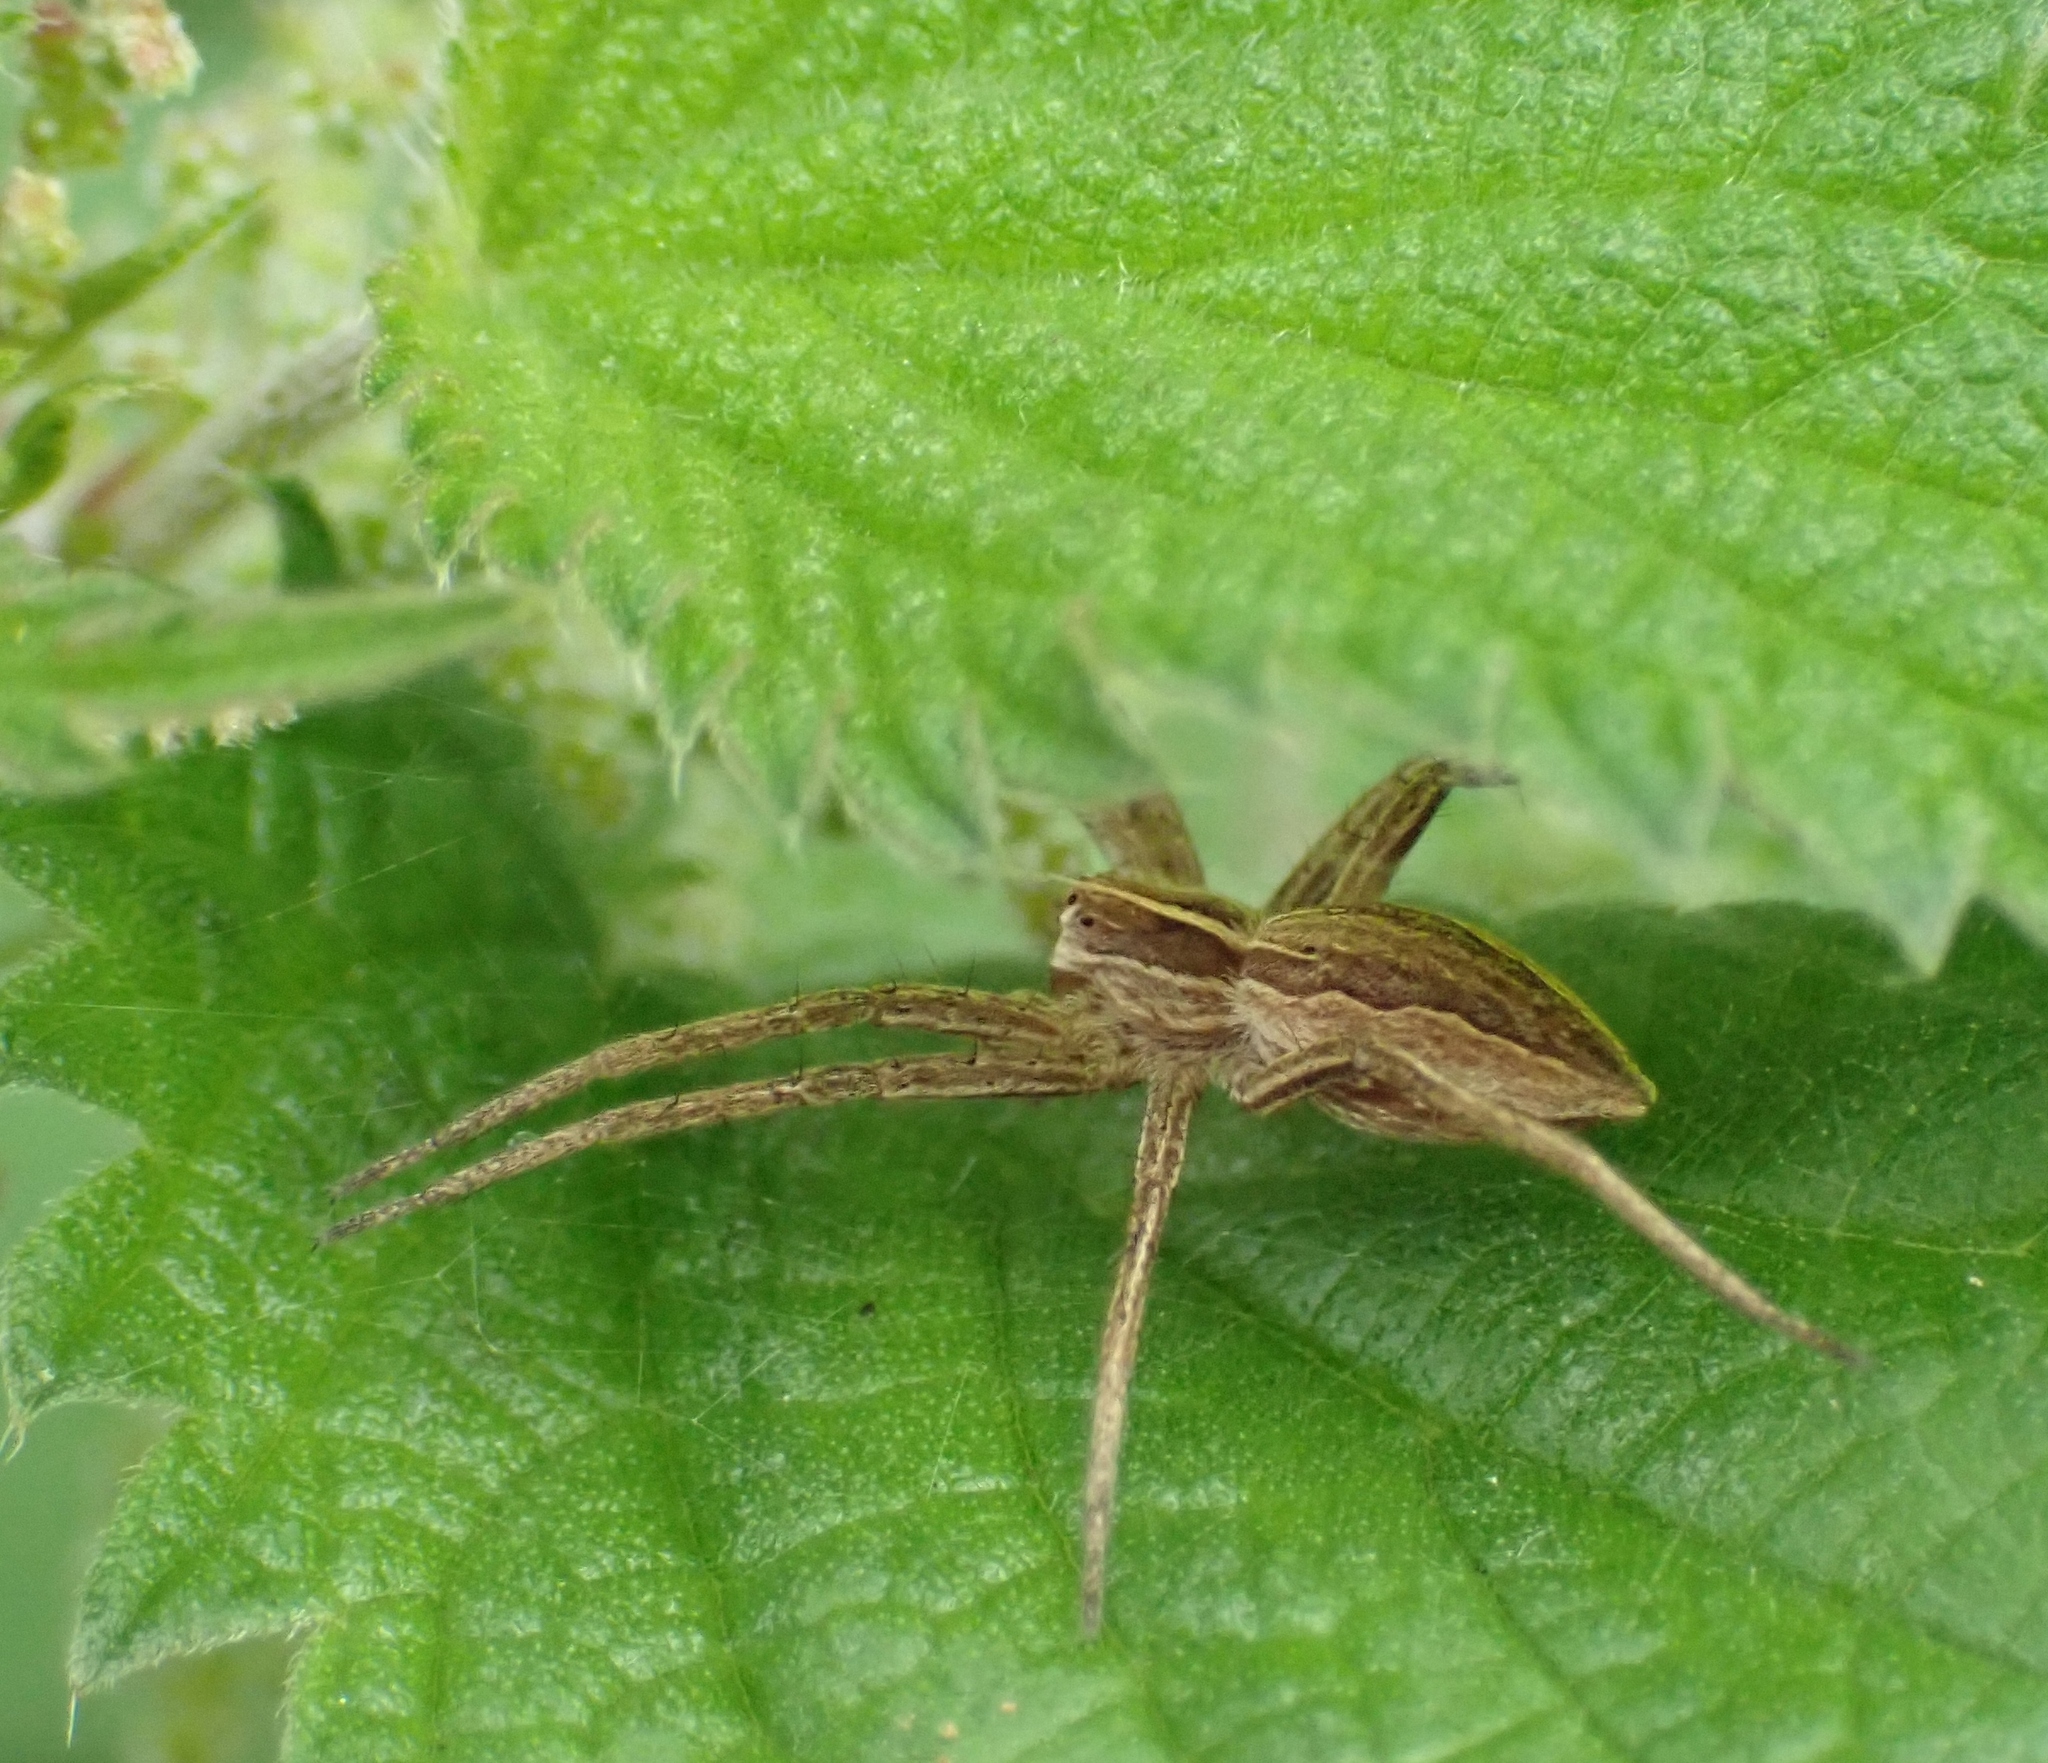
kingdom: Animalia
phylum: Arthropoda
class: Arachnida
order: Araneae
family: Pisauridae
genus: Pisaura
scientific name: Pisaura mirabilis
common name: Tent spider
